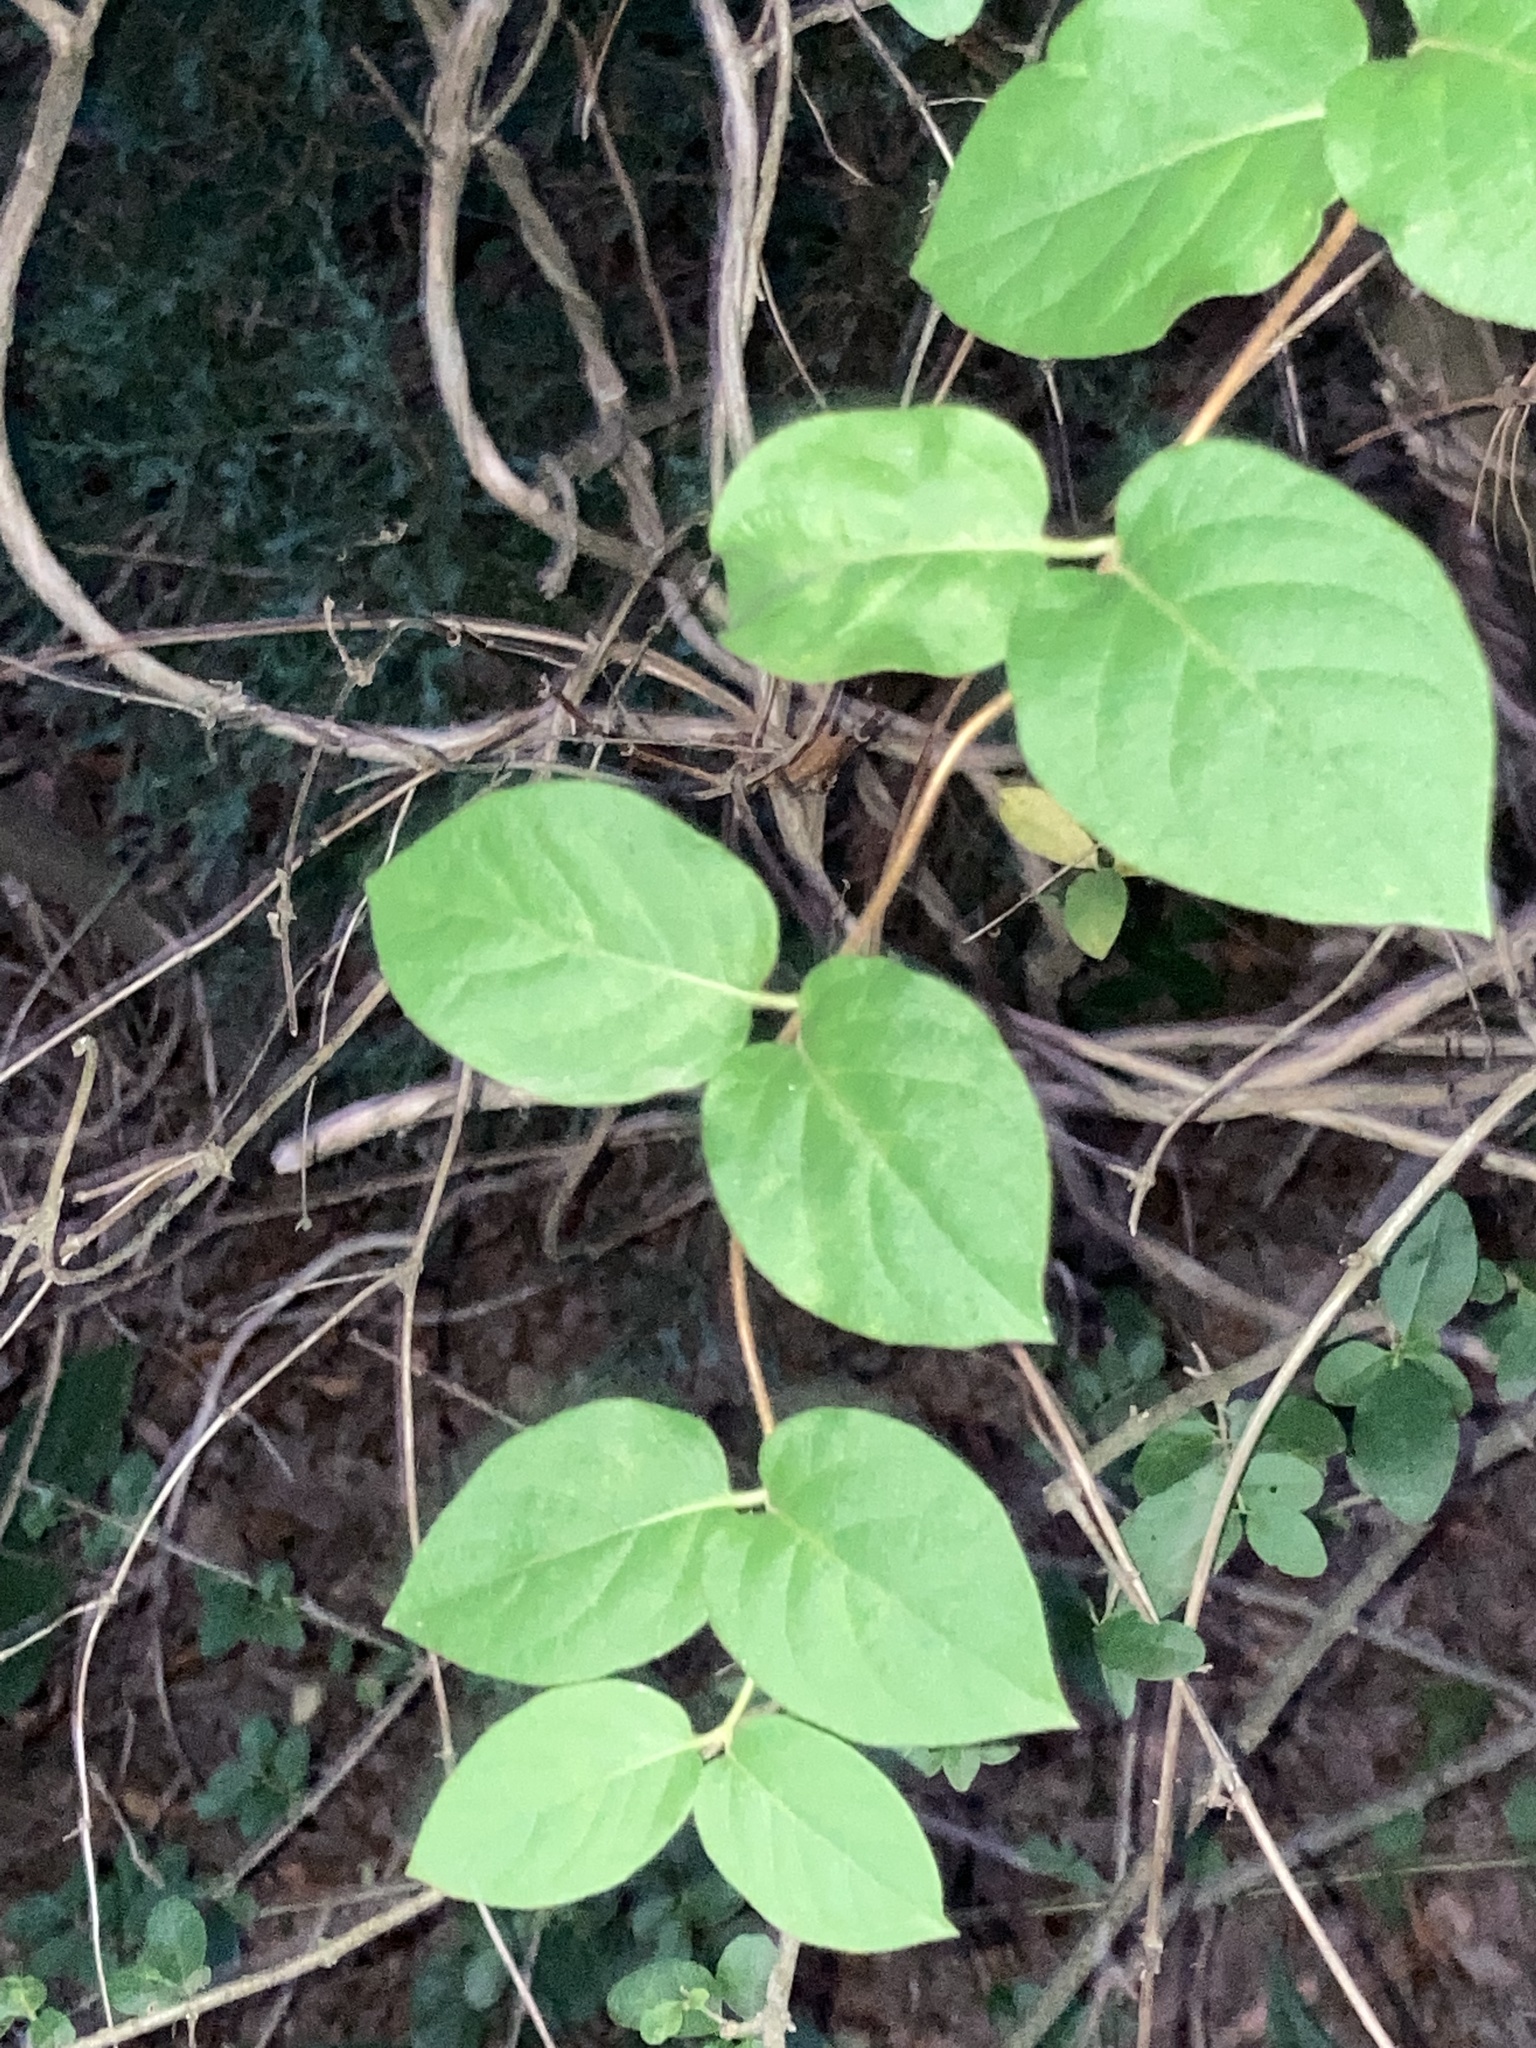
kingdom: Plantae
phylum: Tracheophyta
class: Magnoliopsida
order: Dipsacales
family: Caprifoliaceae
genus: Lonicera
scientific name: Lonicera japonica
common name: Japanese honeysuckle
